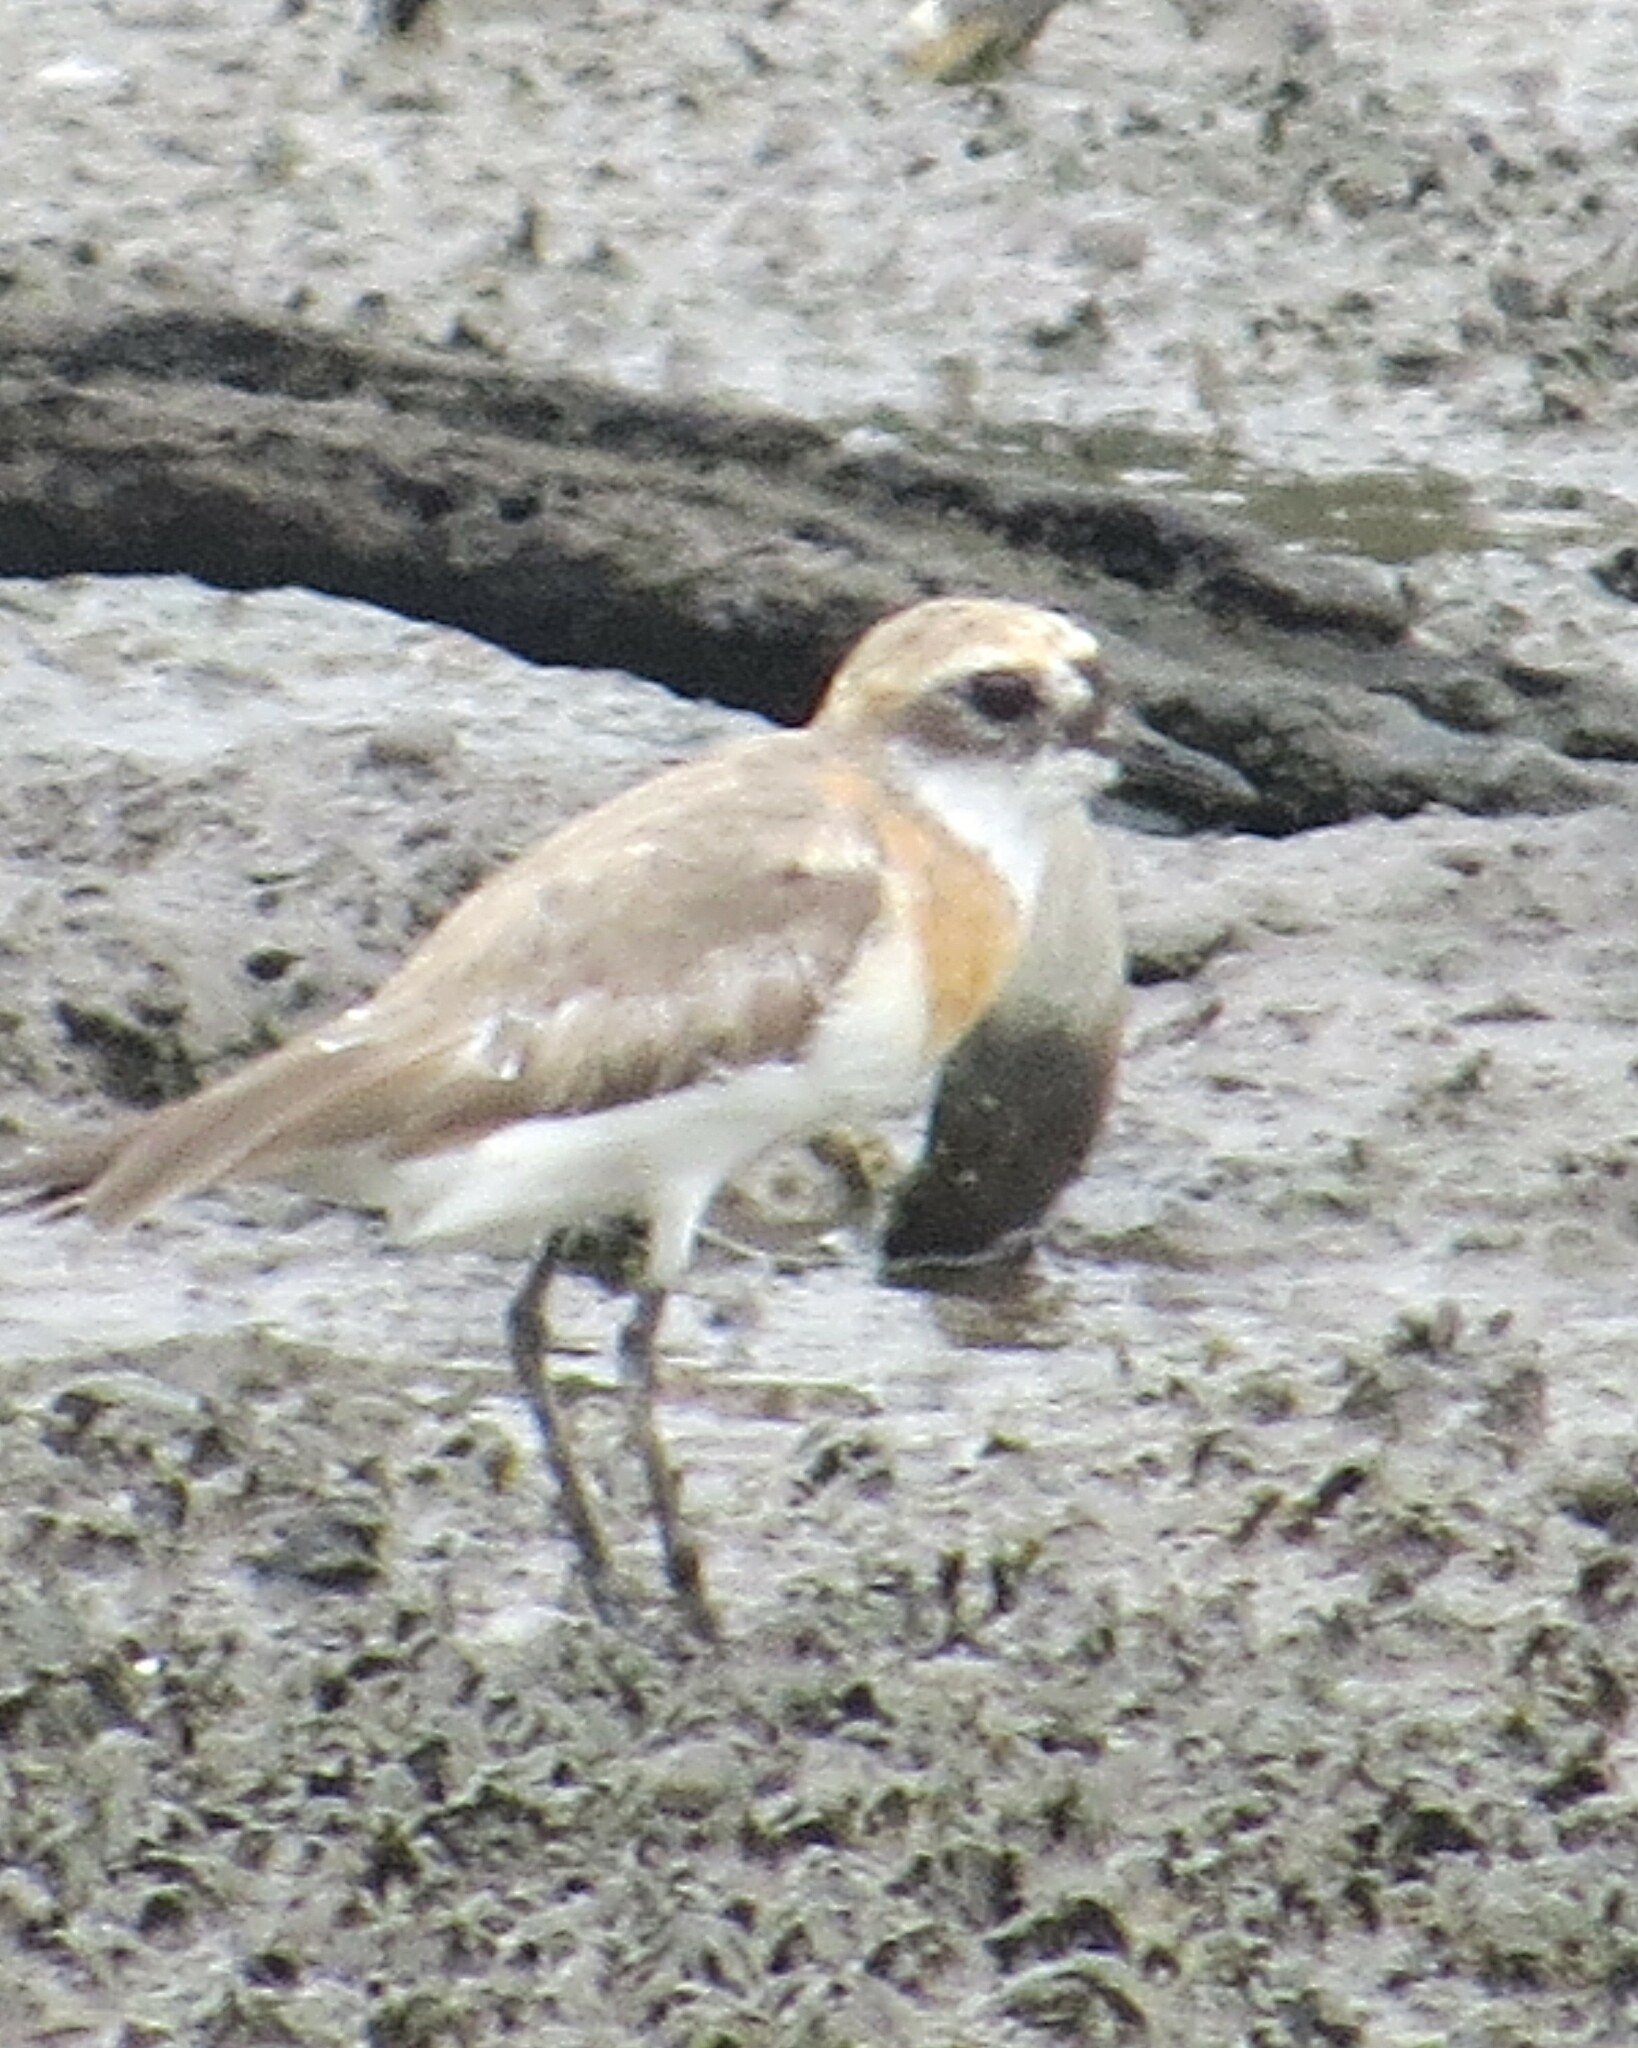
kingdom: Animalia
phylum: Chordata
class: Aves
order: Charadriiformes
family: Charadriidae
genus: Anarhynchus
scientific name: Anarhynchus
